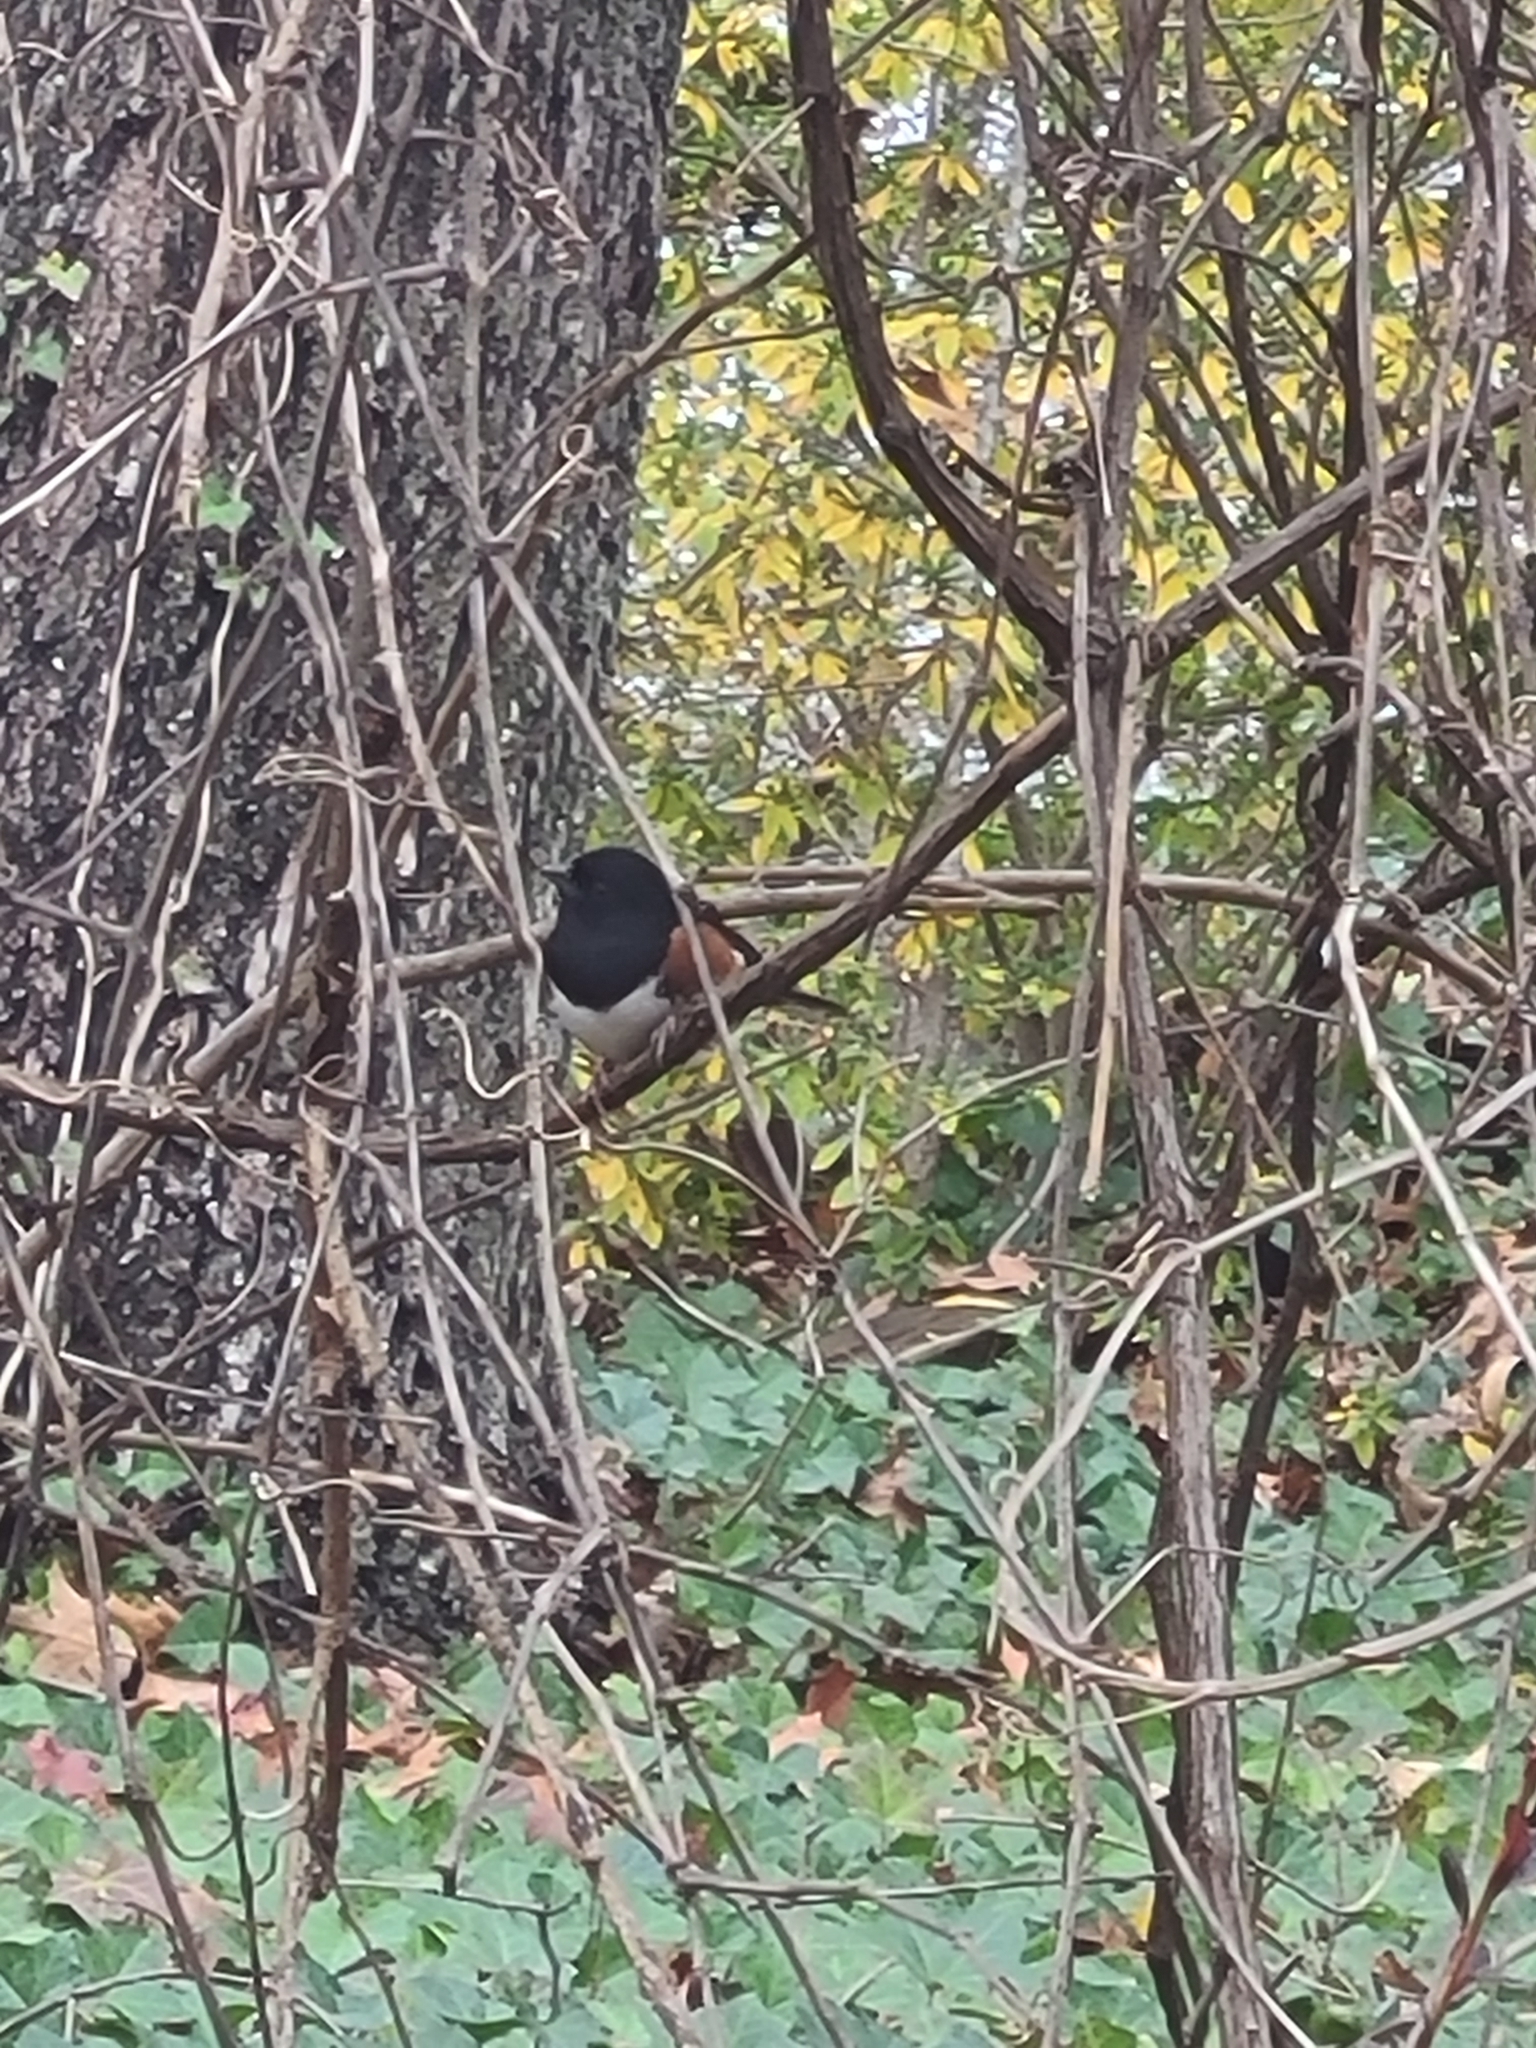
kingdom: Animalia
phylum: Chordata
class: Aves
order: Passeriformes
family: Passerellidae
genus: Pipilo
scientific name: Pipilo erythrophthalmus
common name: Eastern towhee
